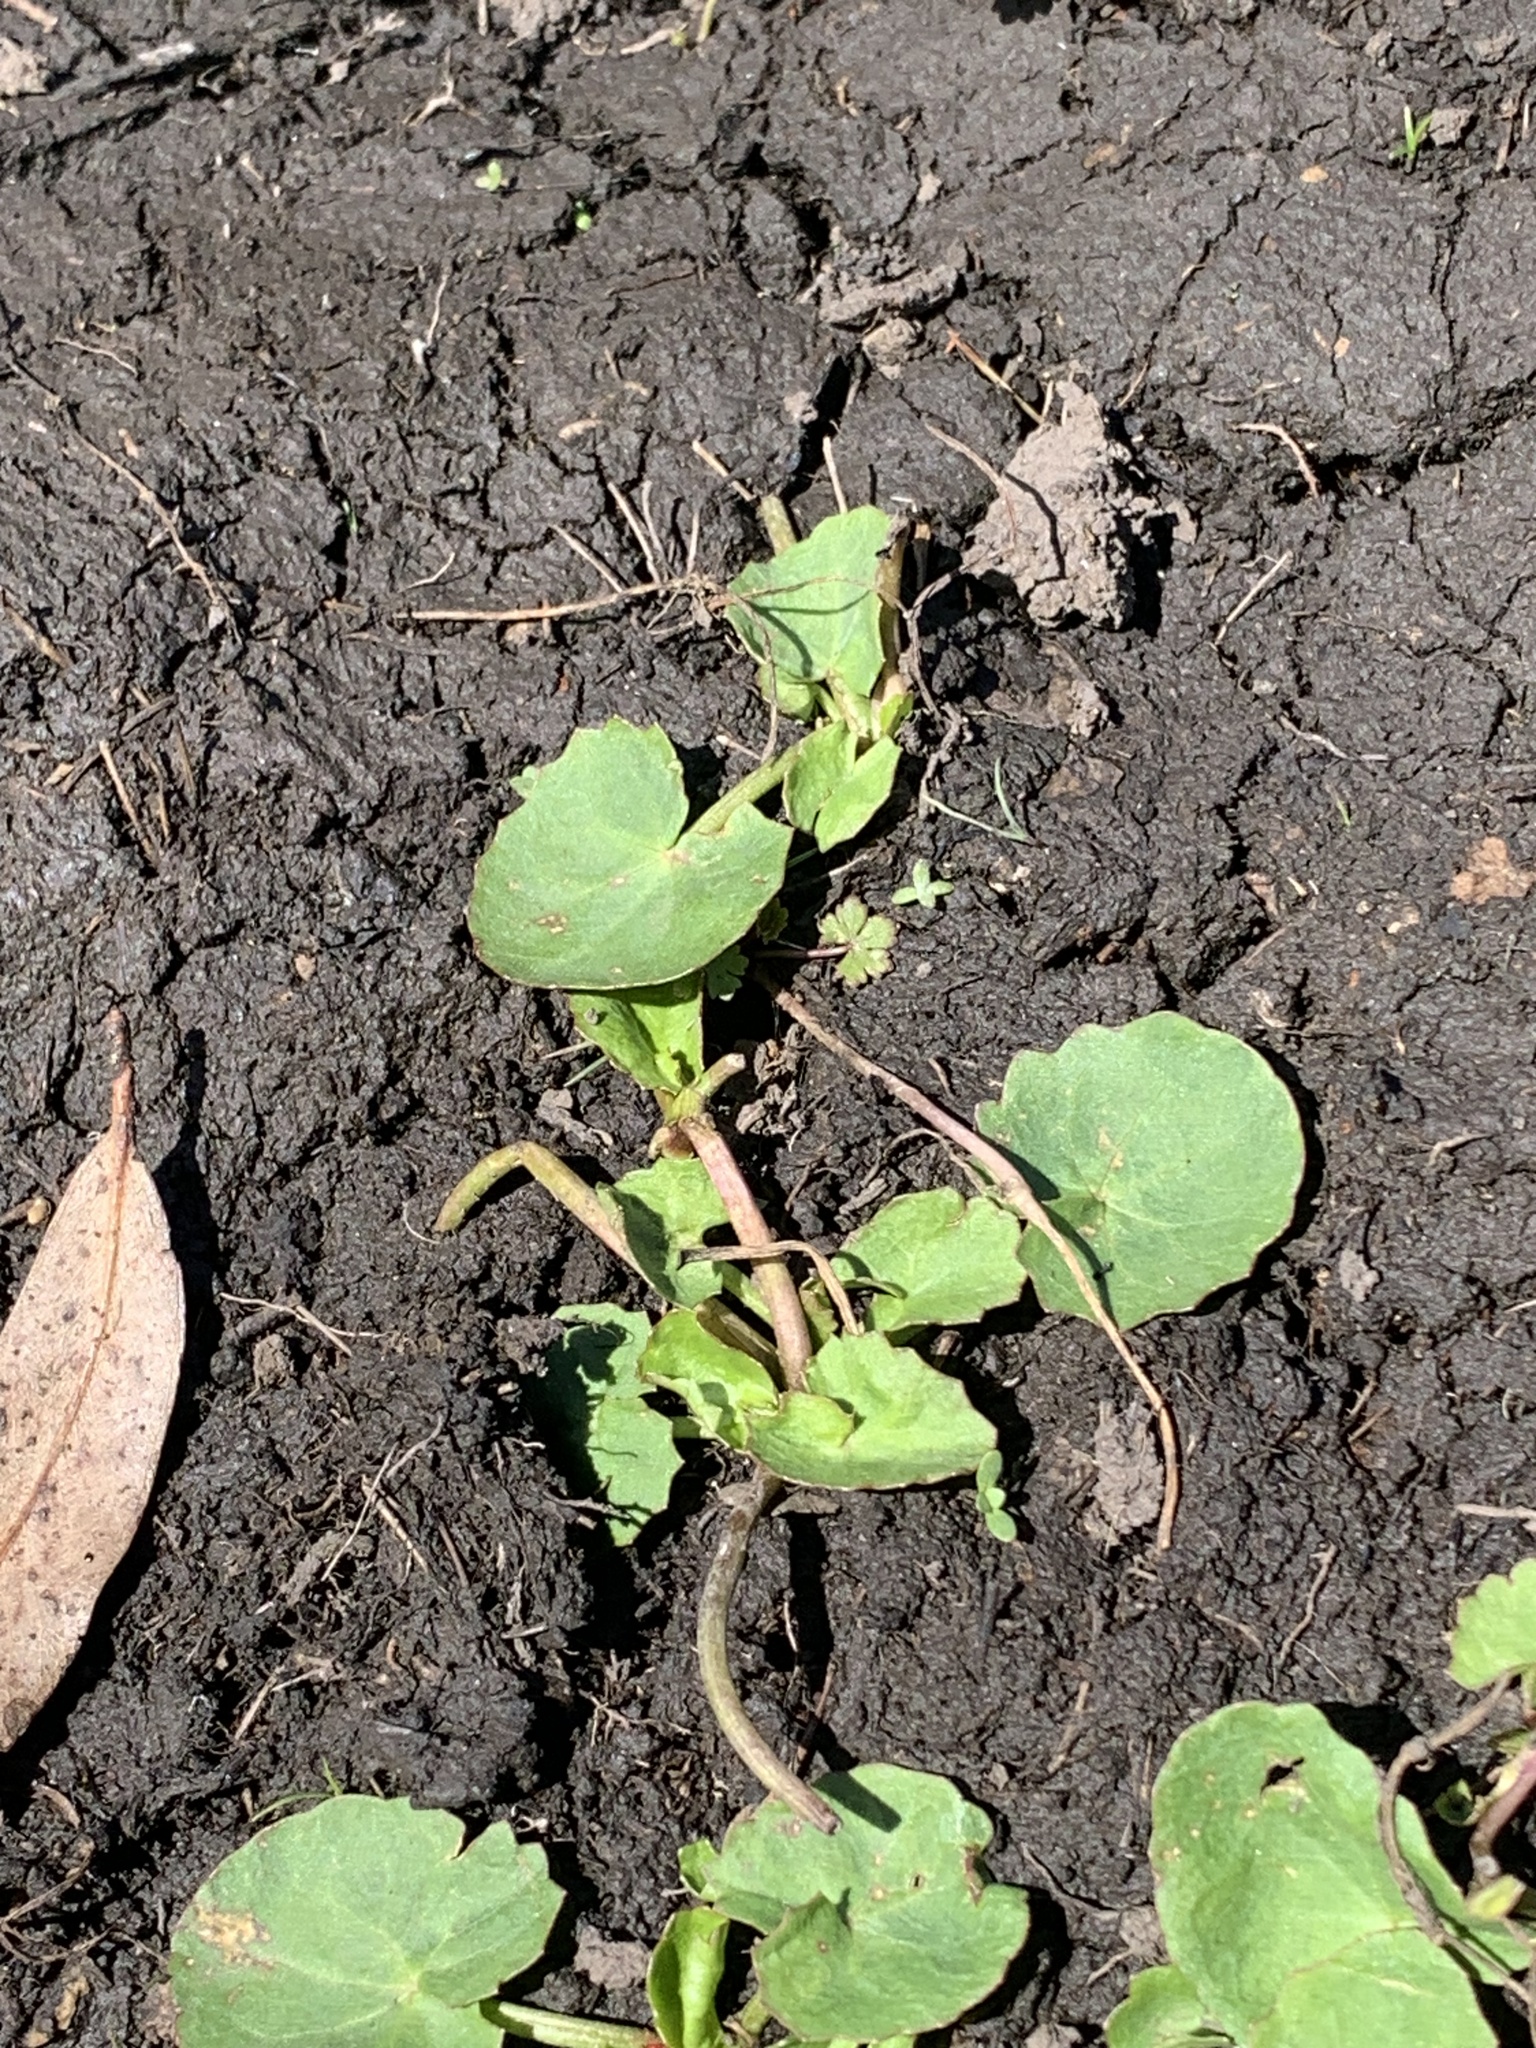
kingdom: Plantae
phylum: Tracheophyta
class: Magnoliopsida
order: Apiales
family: Apiaceae
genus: Centella
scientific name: Centella cordifolia
